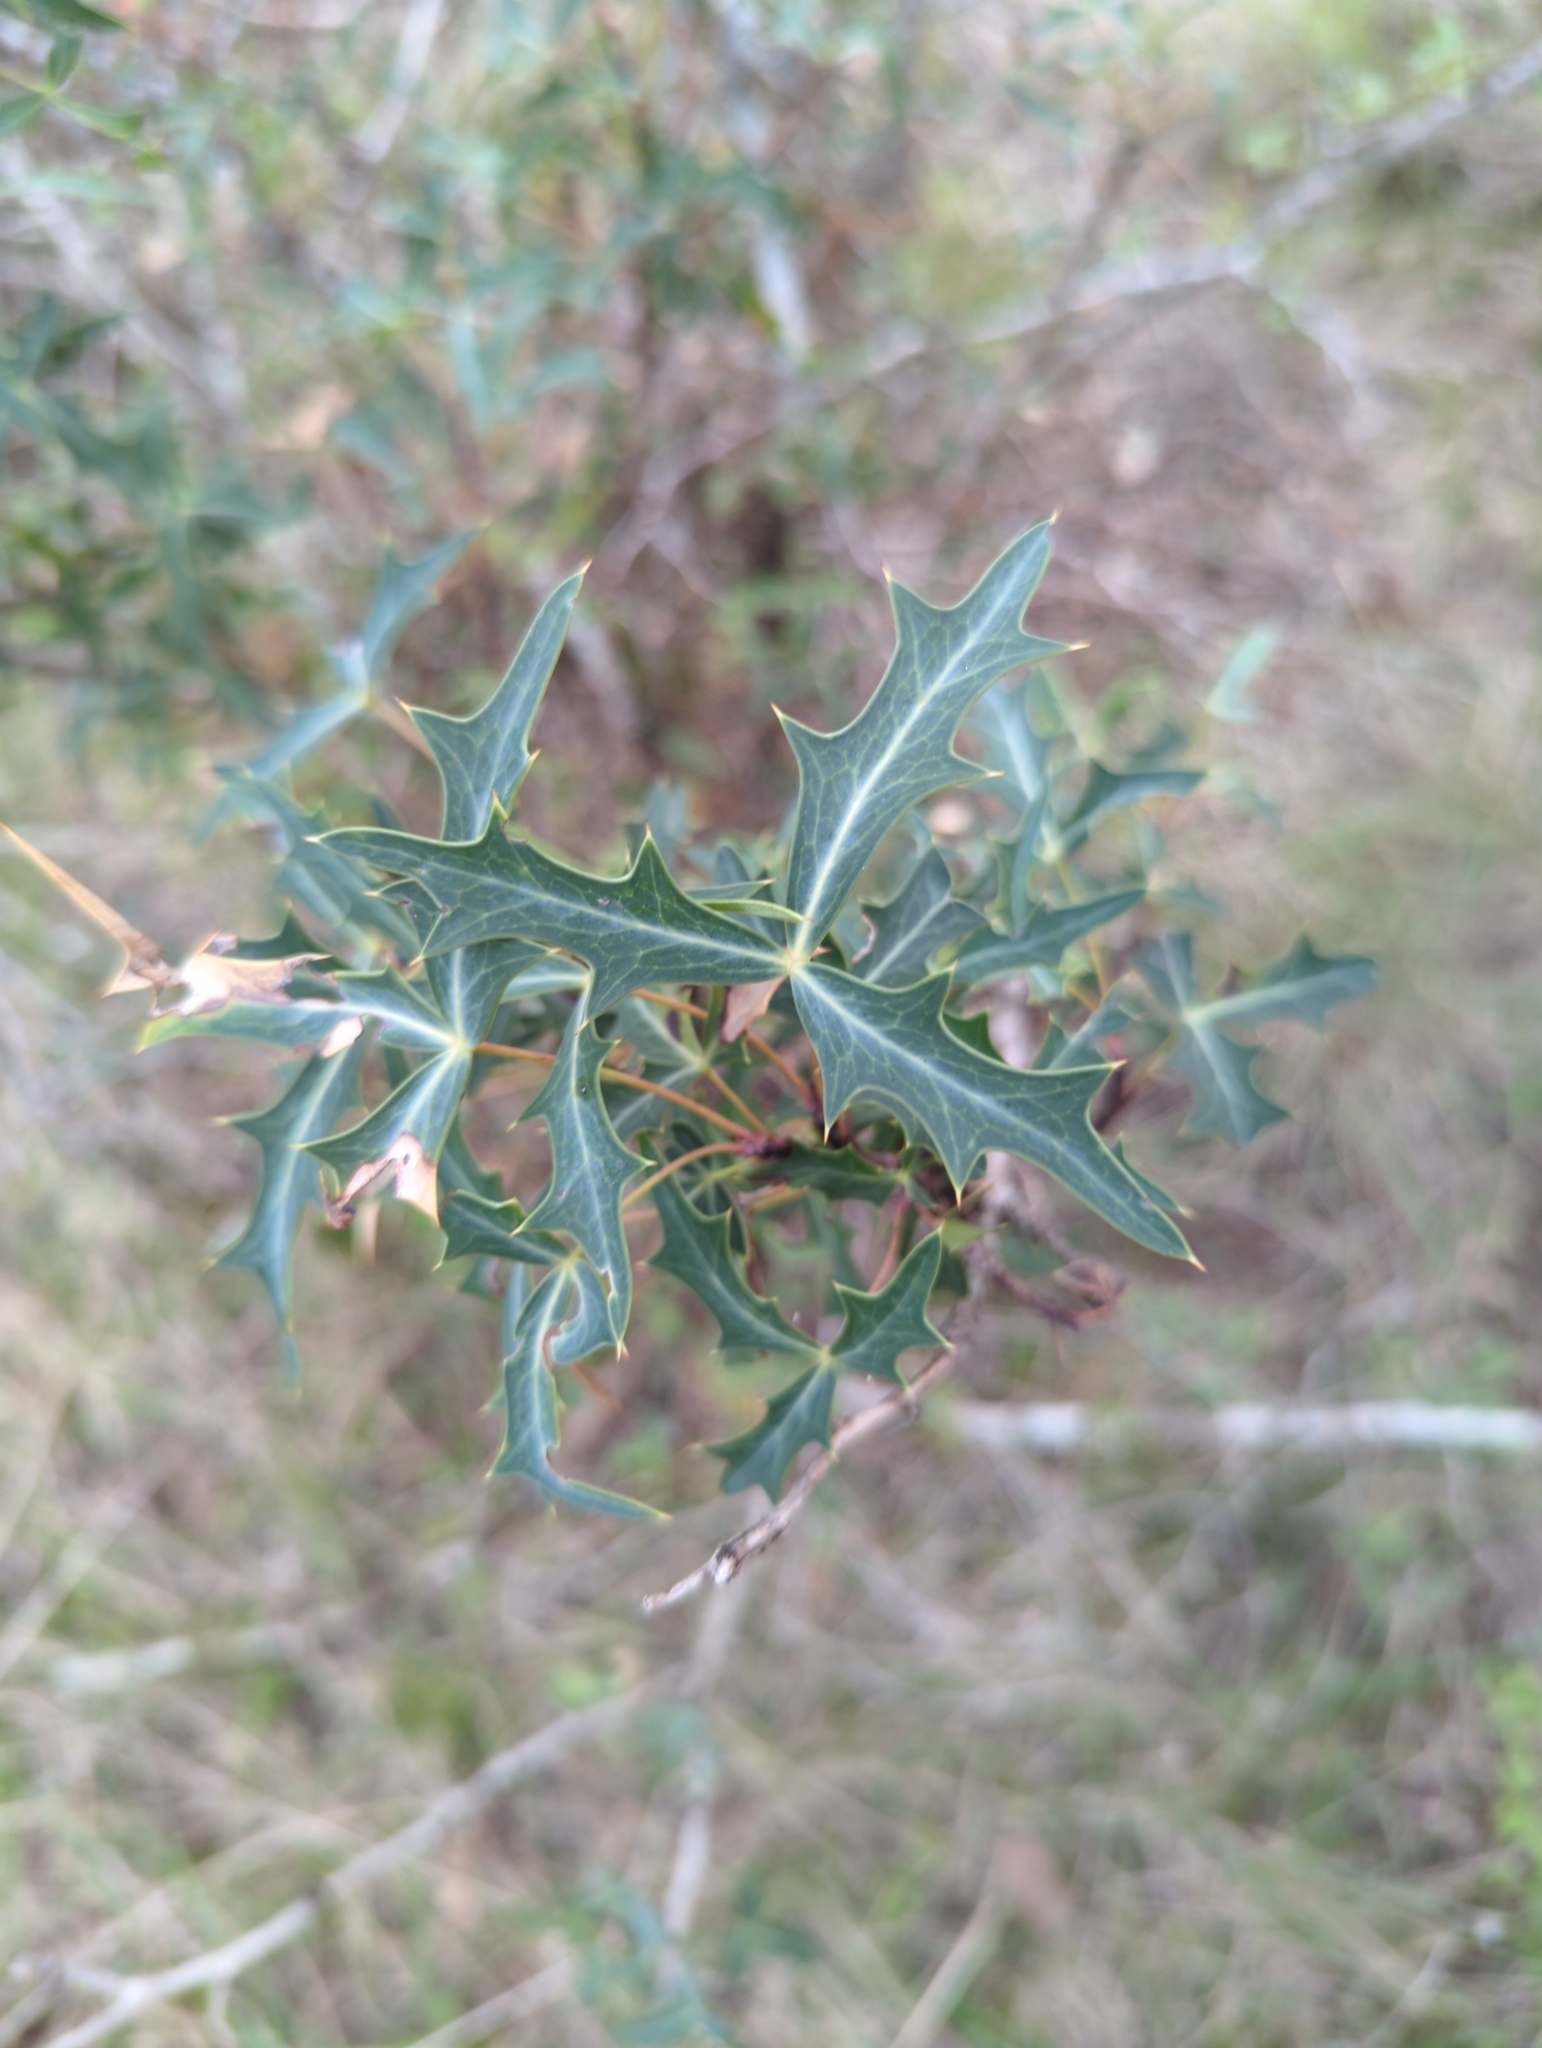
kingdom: Plantae
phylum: Tracheophyta
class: Magnoliopsida
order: Ranunculales
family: Berberidaceae
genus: Alloberberis
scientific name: Alloberberis trifoliolata
